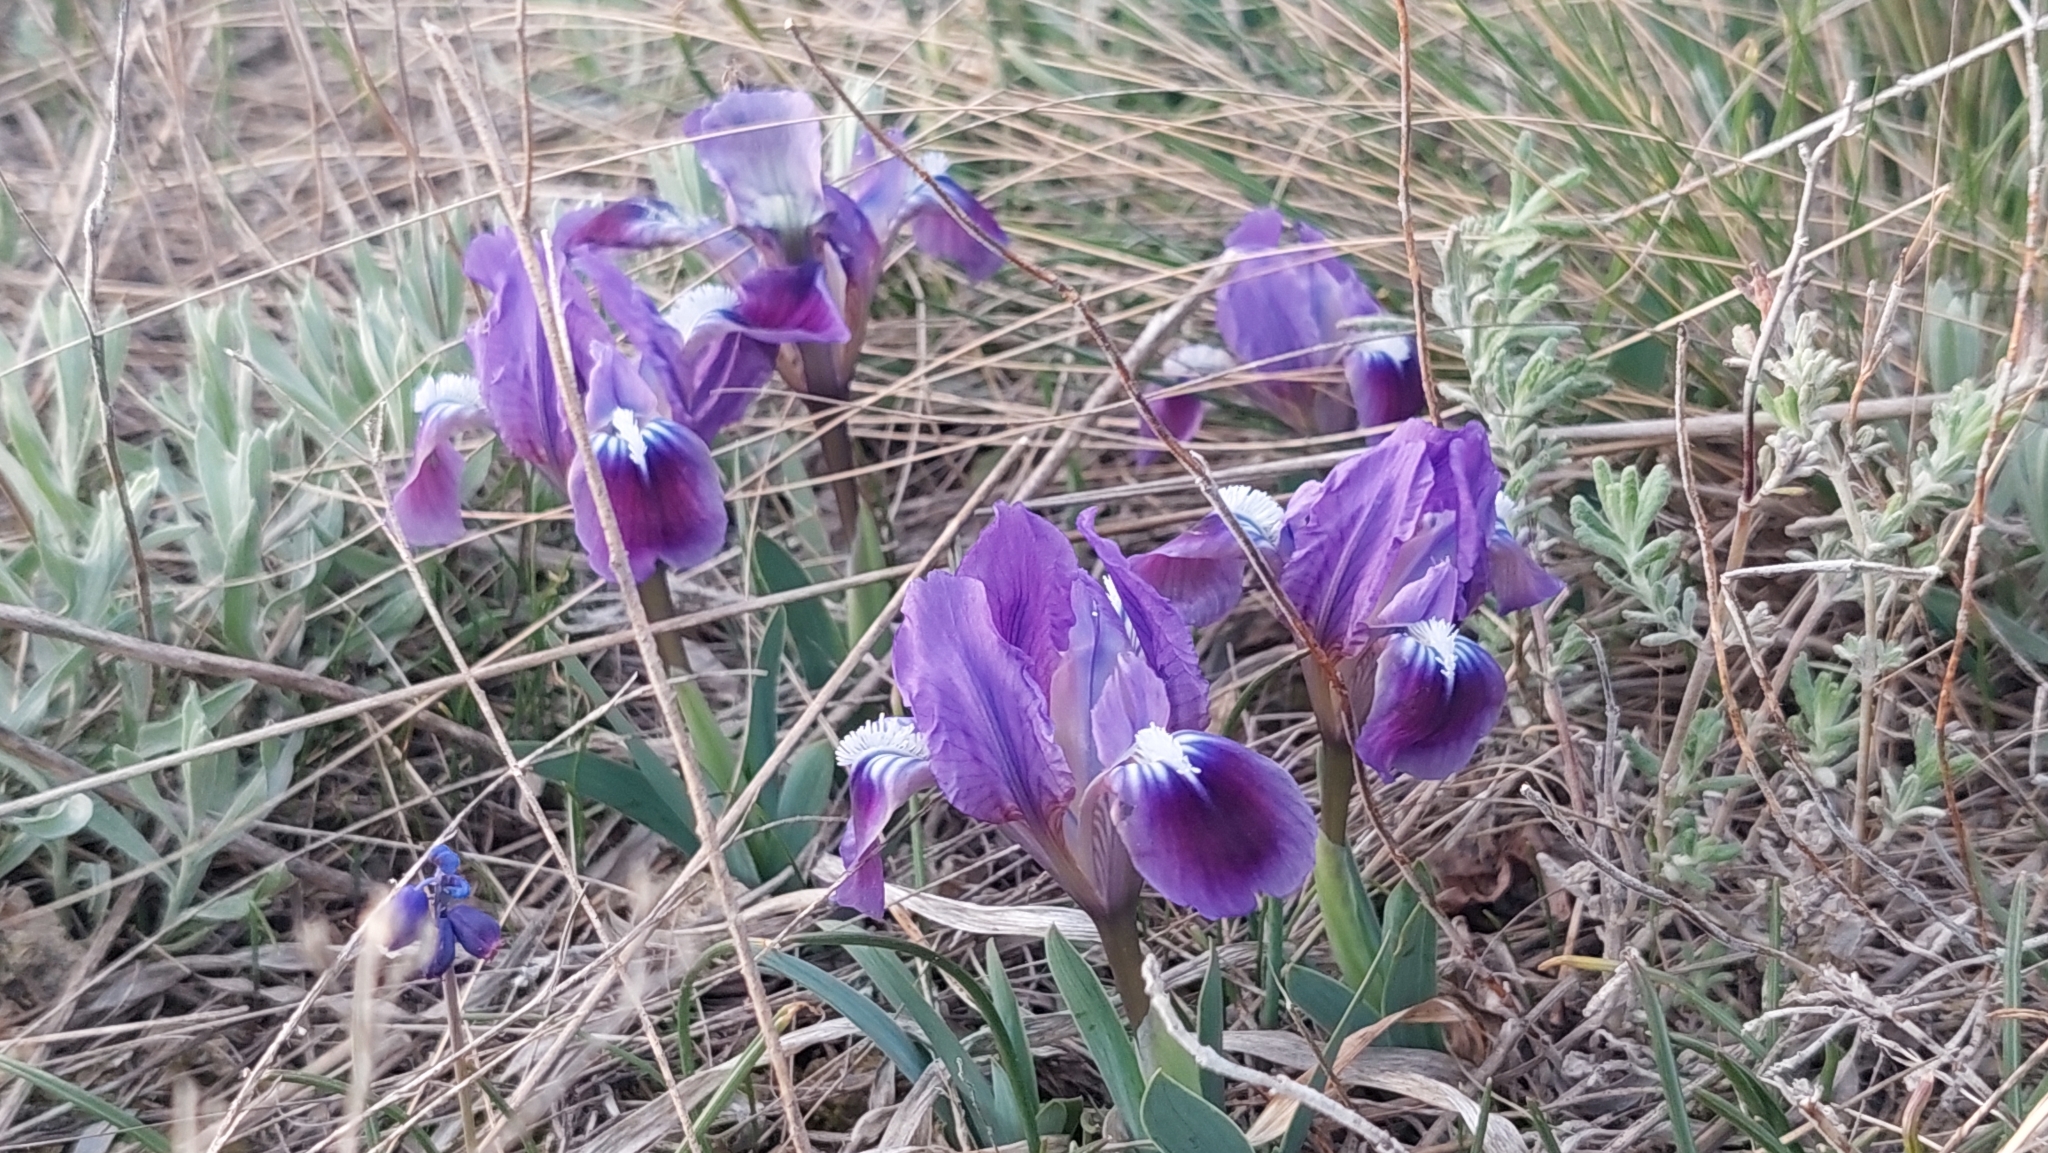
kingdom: Plantae
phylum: Tracheophyta
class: Liliopsida
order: Asparagales
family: Iridaceae
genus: Iris
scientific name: Iris pumila
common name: Dwarf iris
